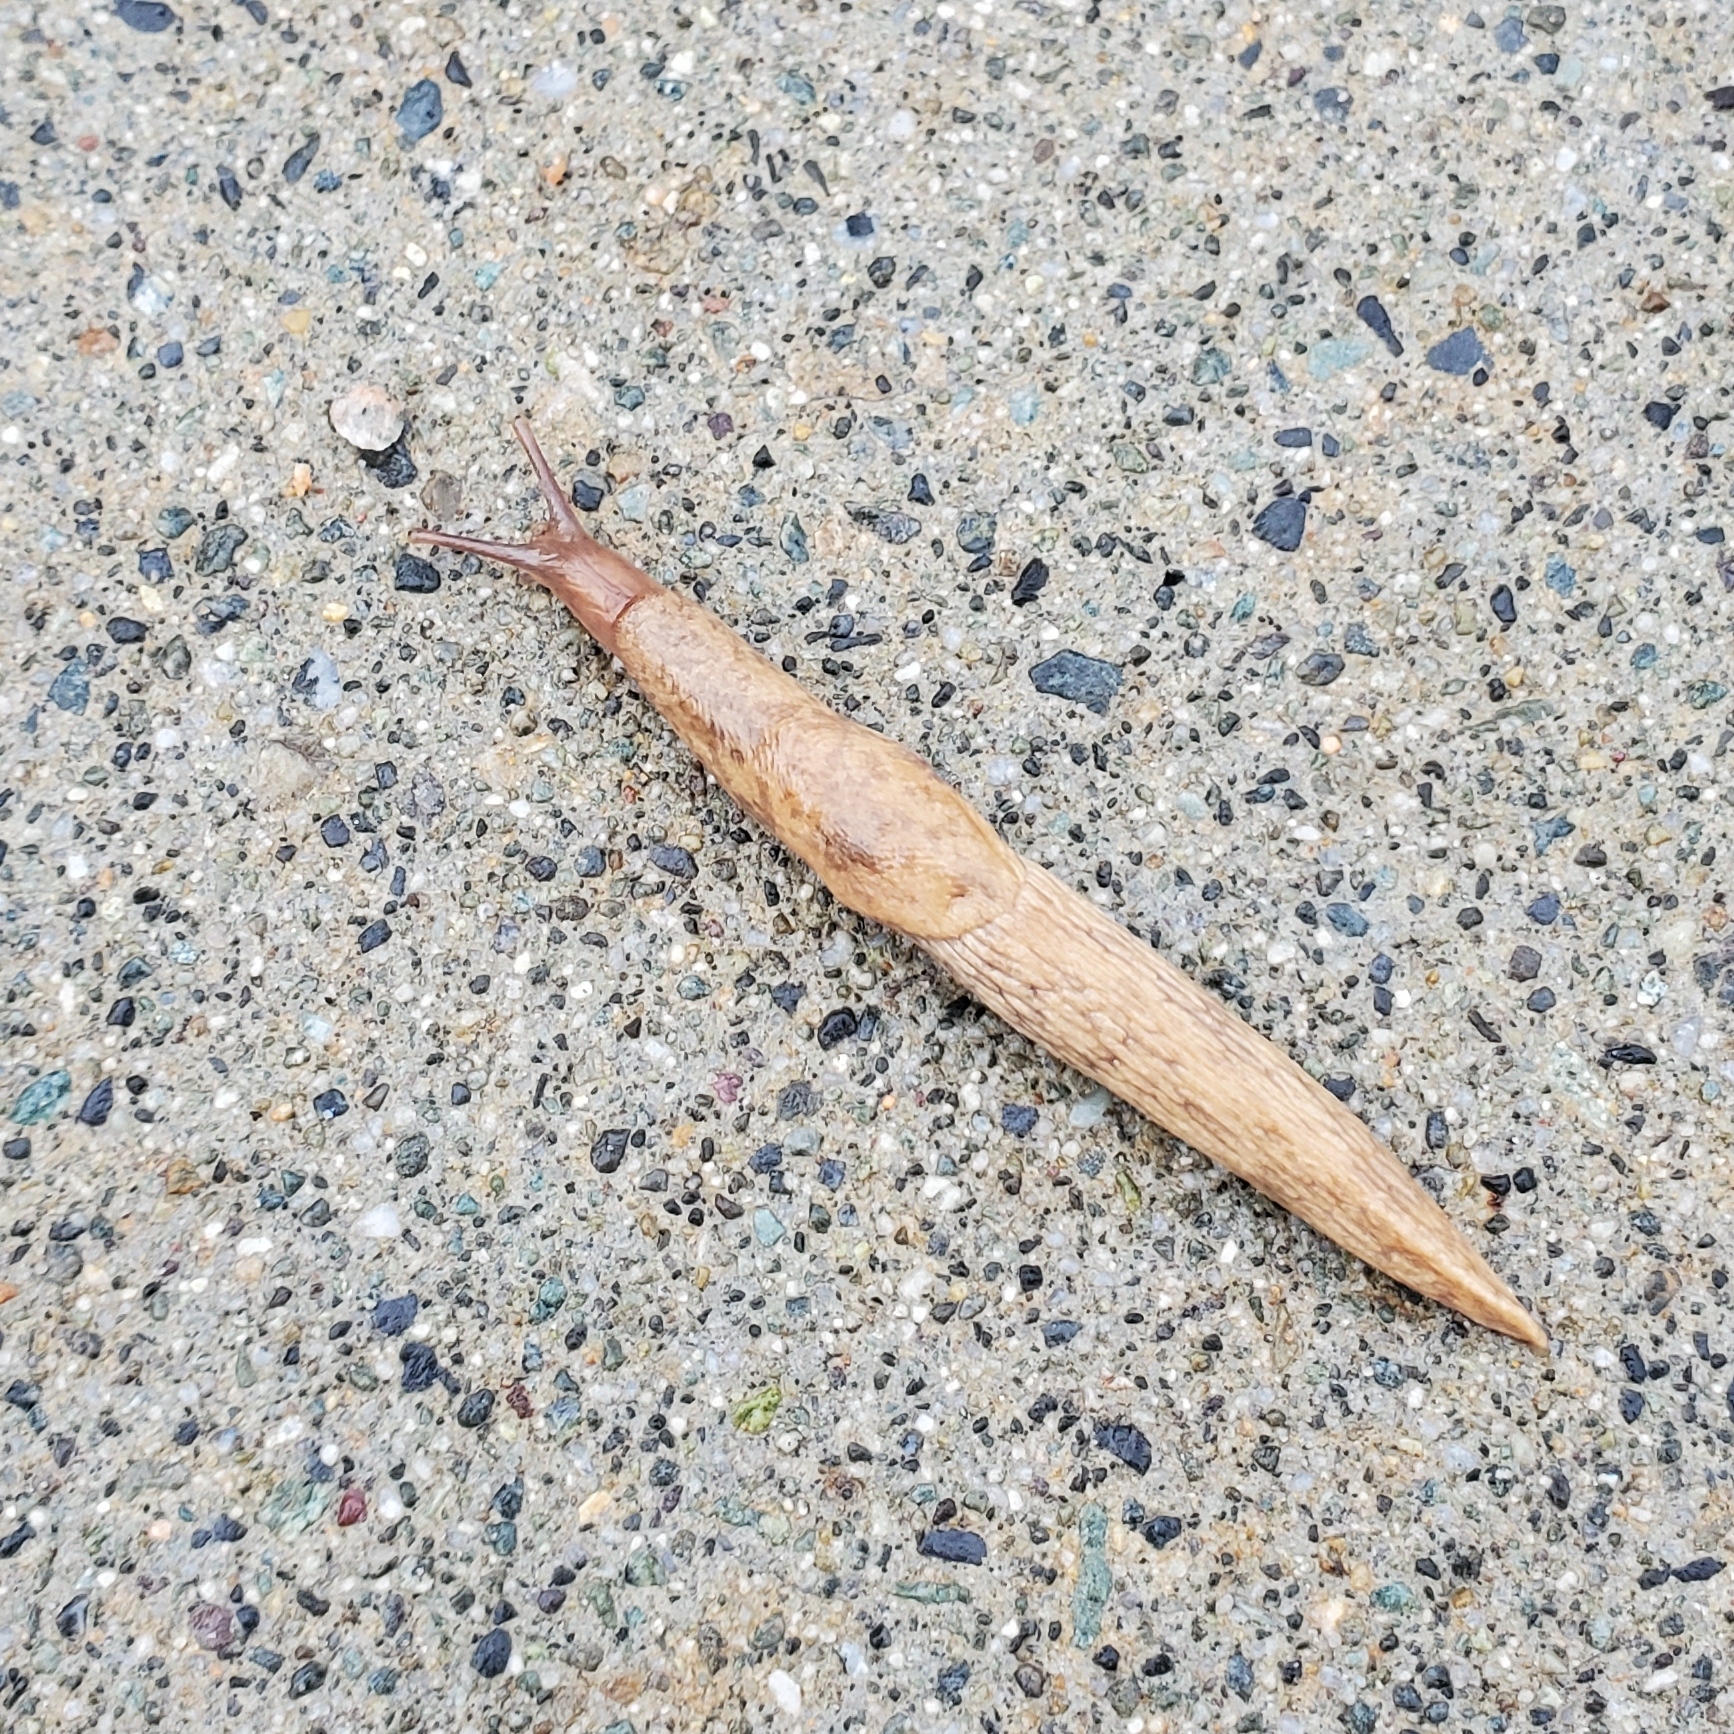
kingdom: Animalia
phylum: Mollusca
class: Gastropoda
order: Stylommatophora
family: Agriolimacidae
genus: Deroceras
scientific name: Deroceras reticulatum
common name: Gray field slug
